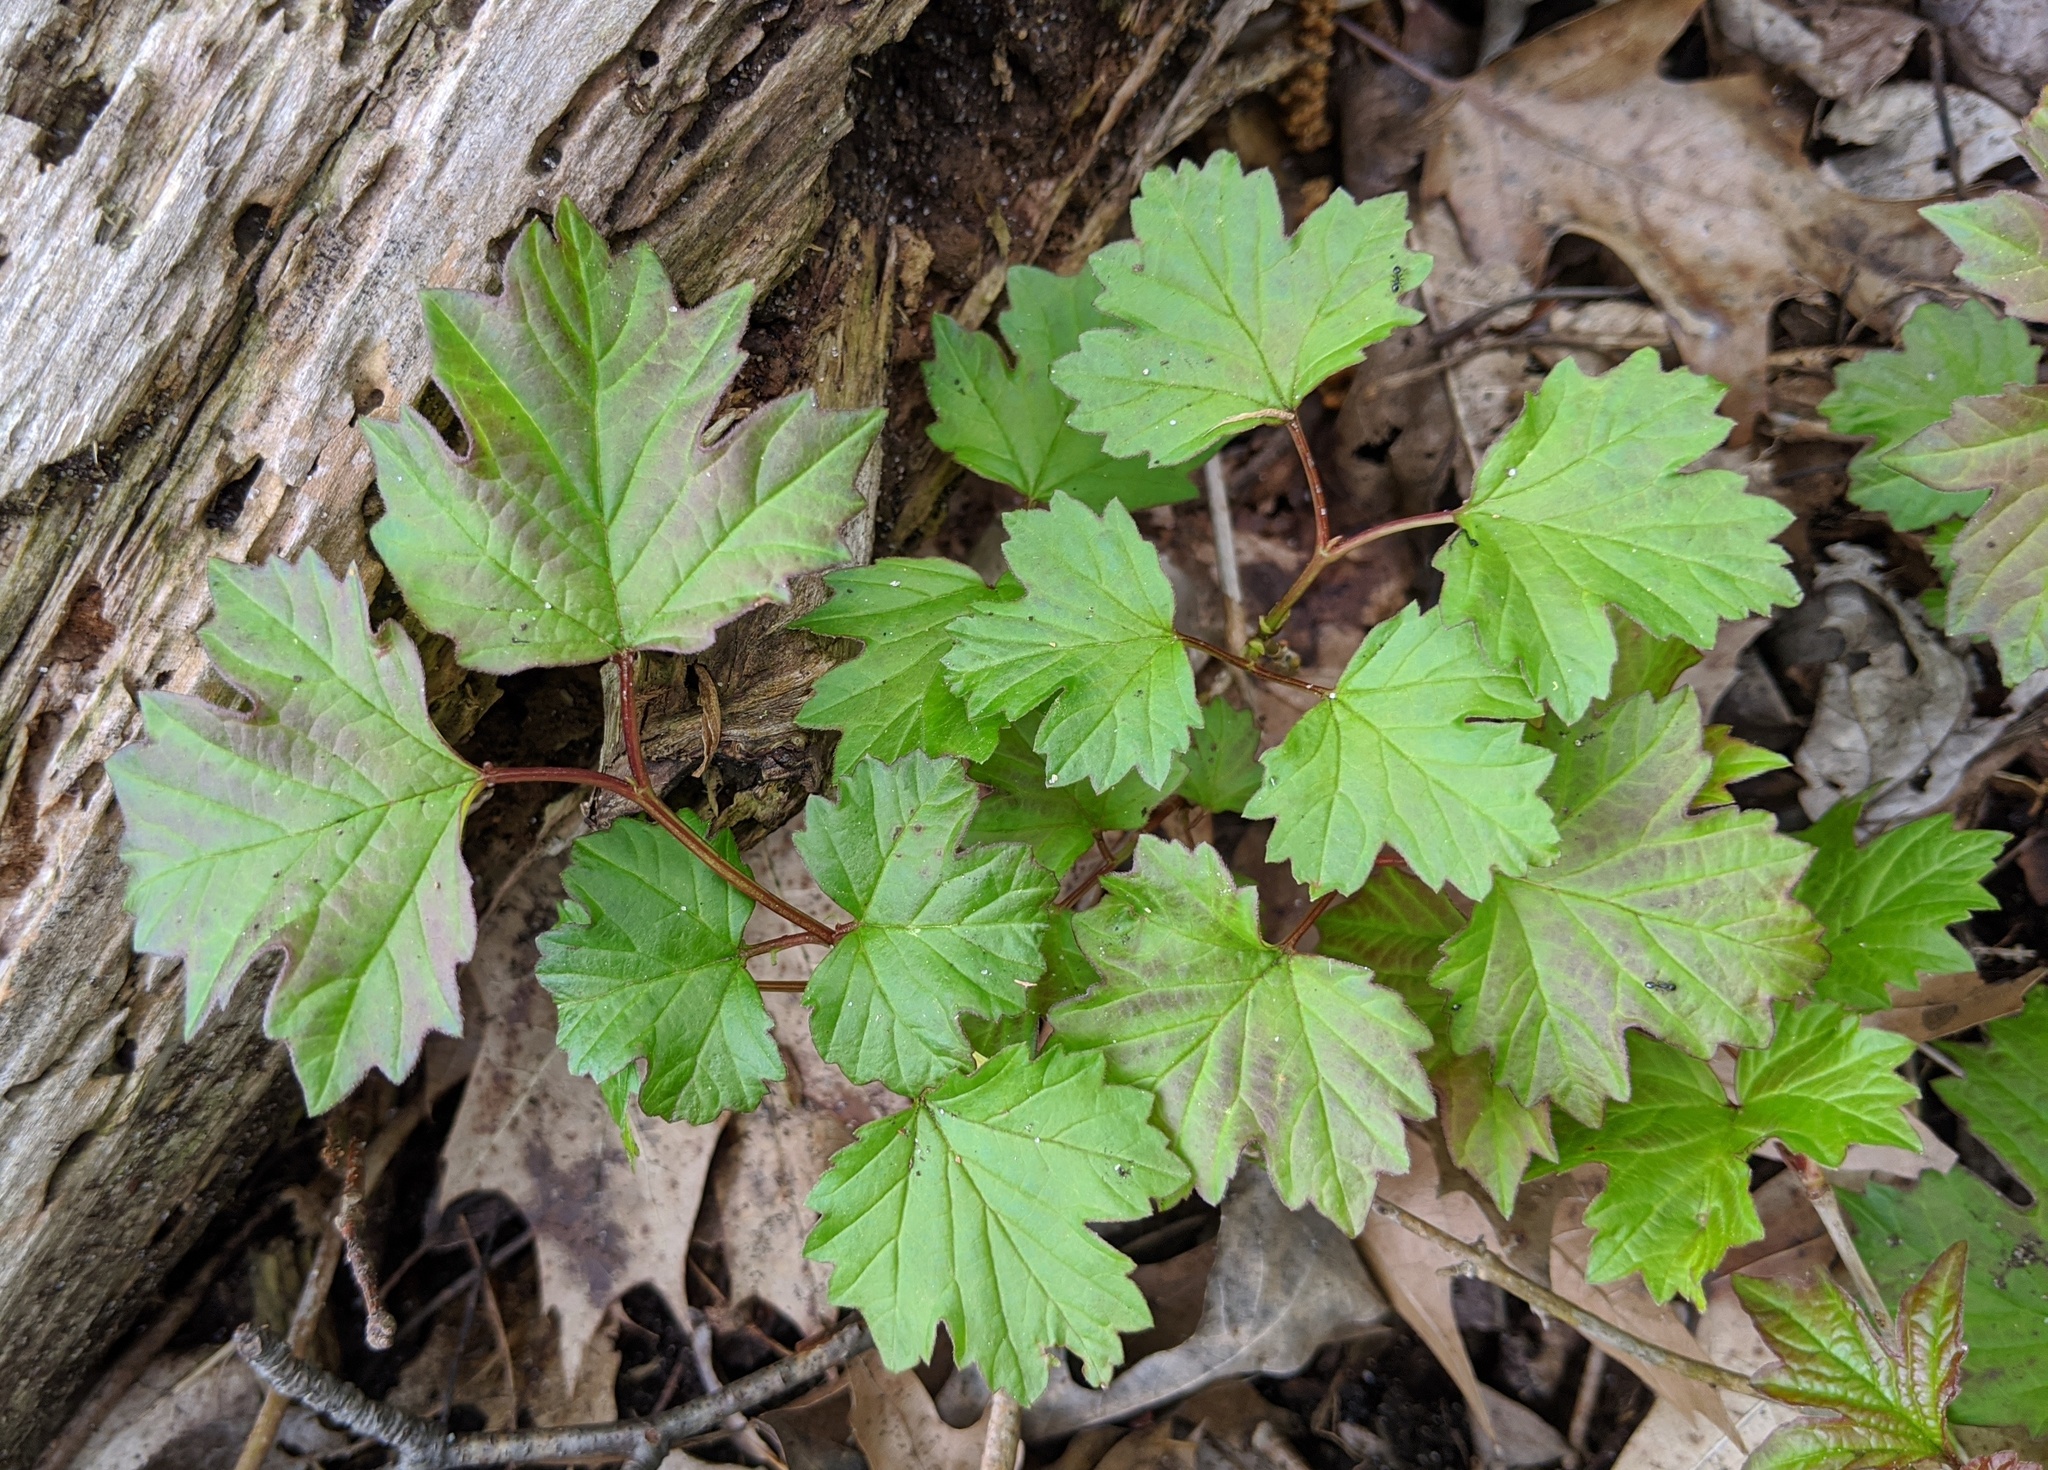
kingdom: Plantae
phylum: Tracheophyta
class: Magnoliopsida
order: Dipsacales
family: Viburnaceae
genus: Viburnum
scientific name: Viburnum opulus
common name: Guelder-rose
